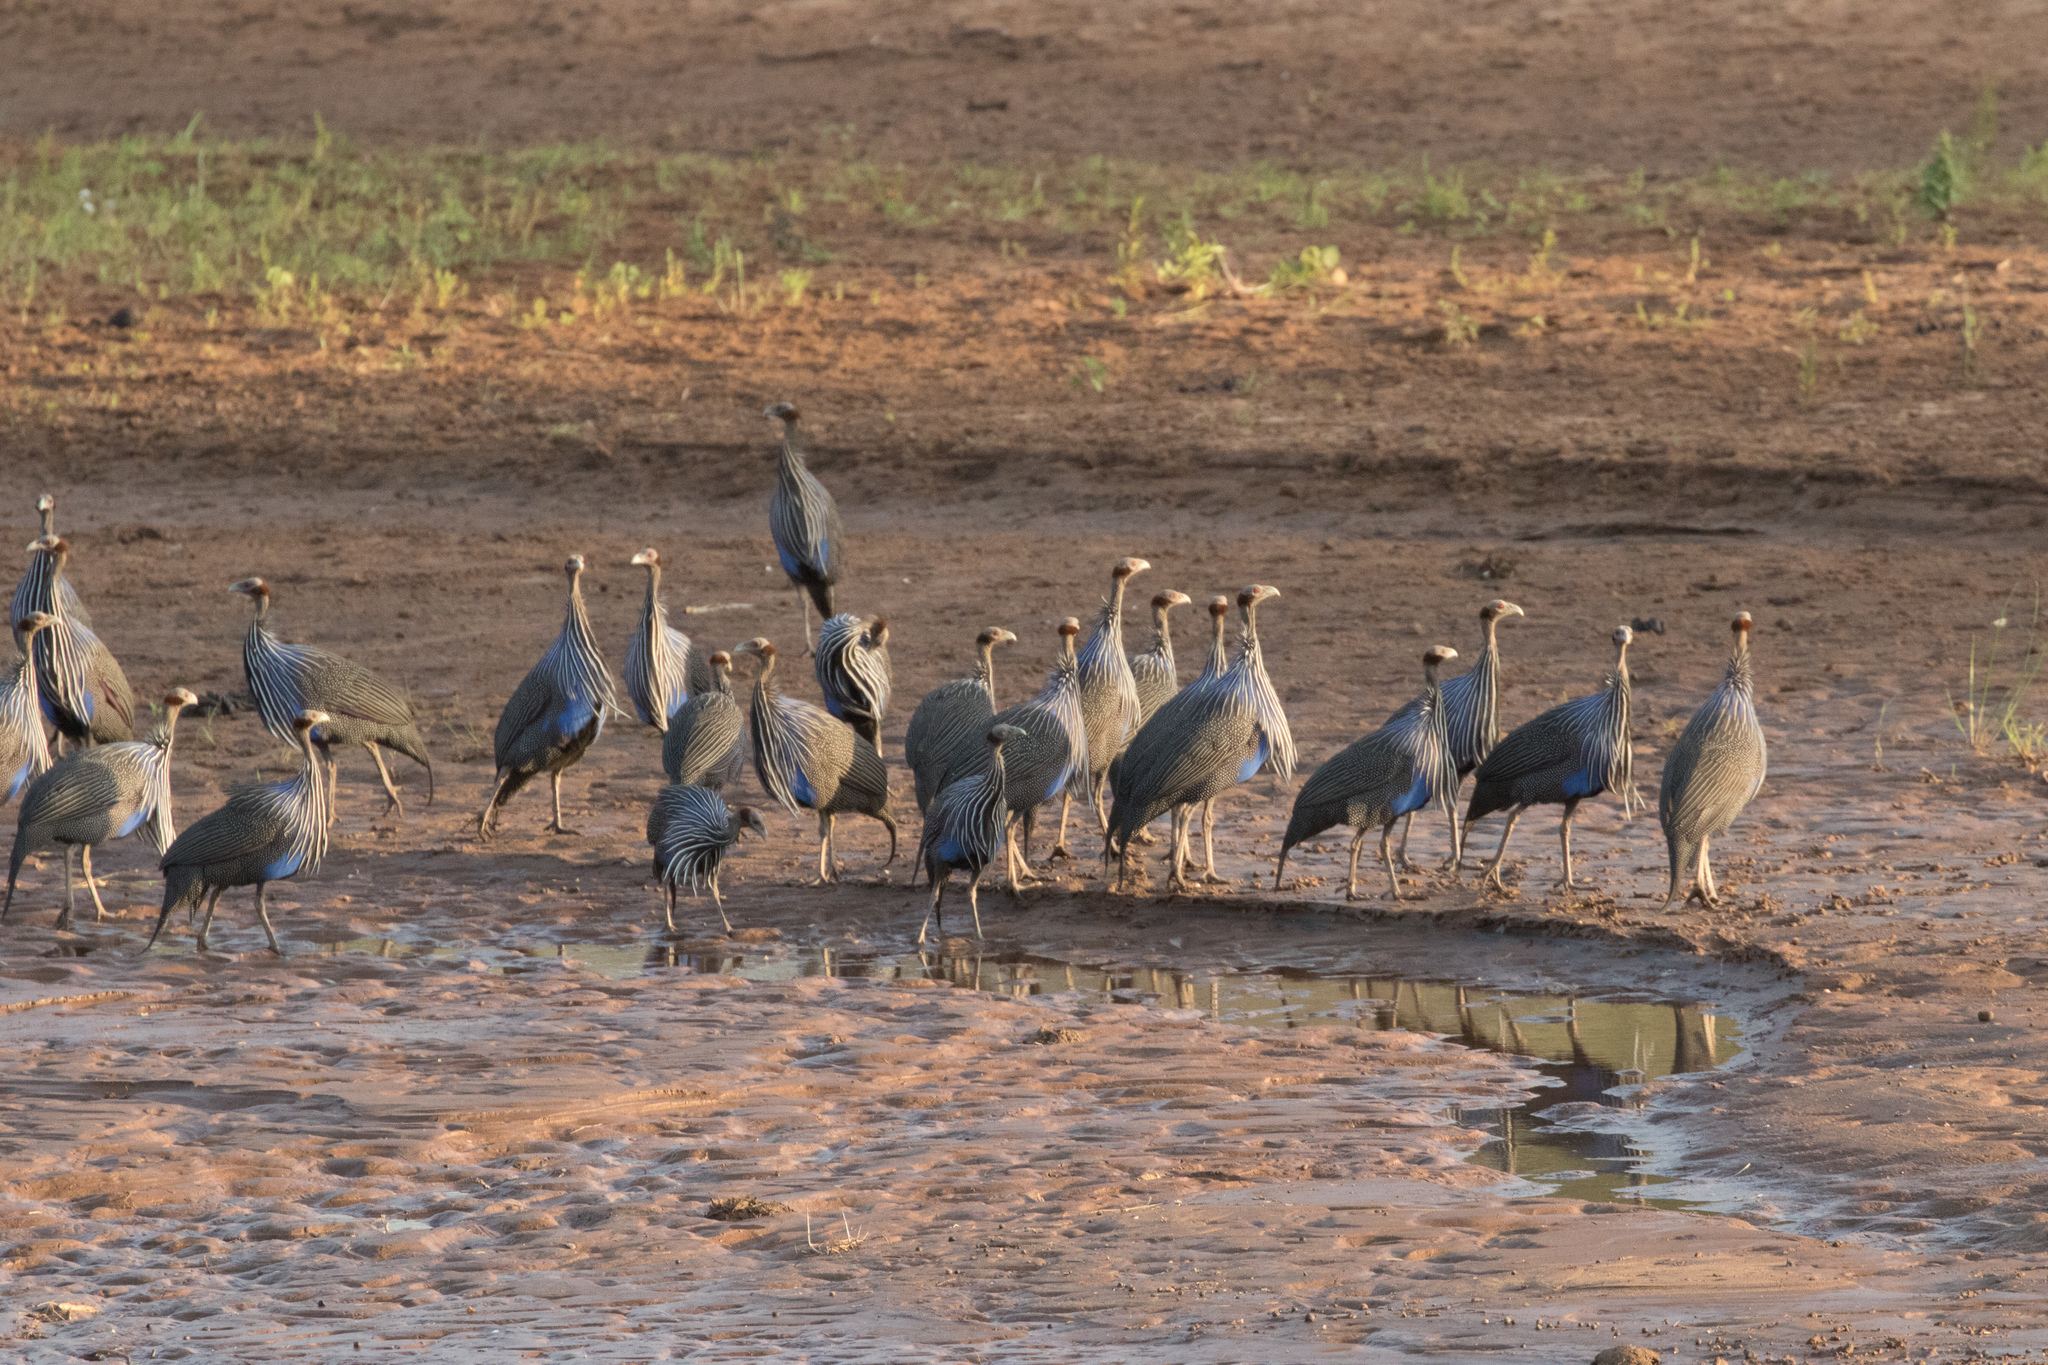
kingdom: Animalia
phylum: Chordata
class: Aves
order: Galliformes
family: Numididae
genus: Acryllium
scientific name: Acryllium vulturinum
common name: Vulturine guineafowl
